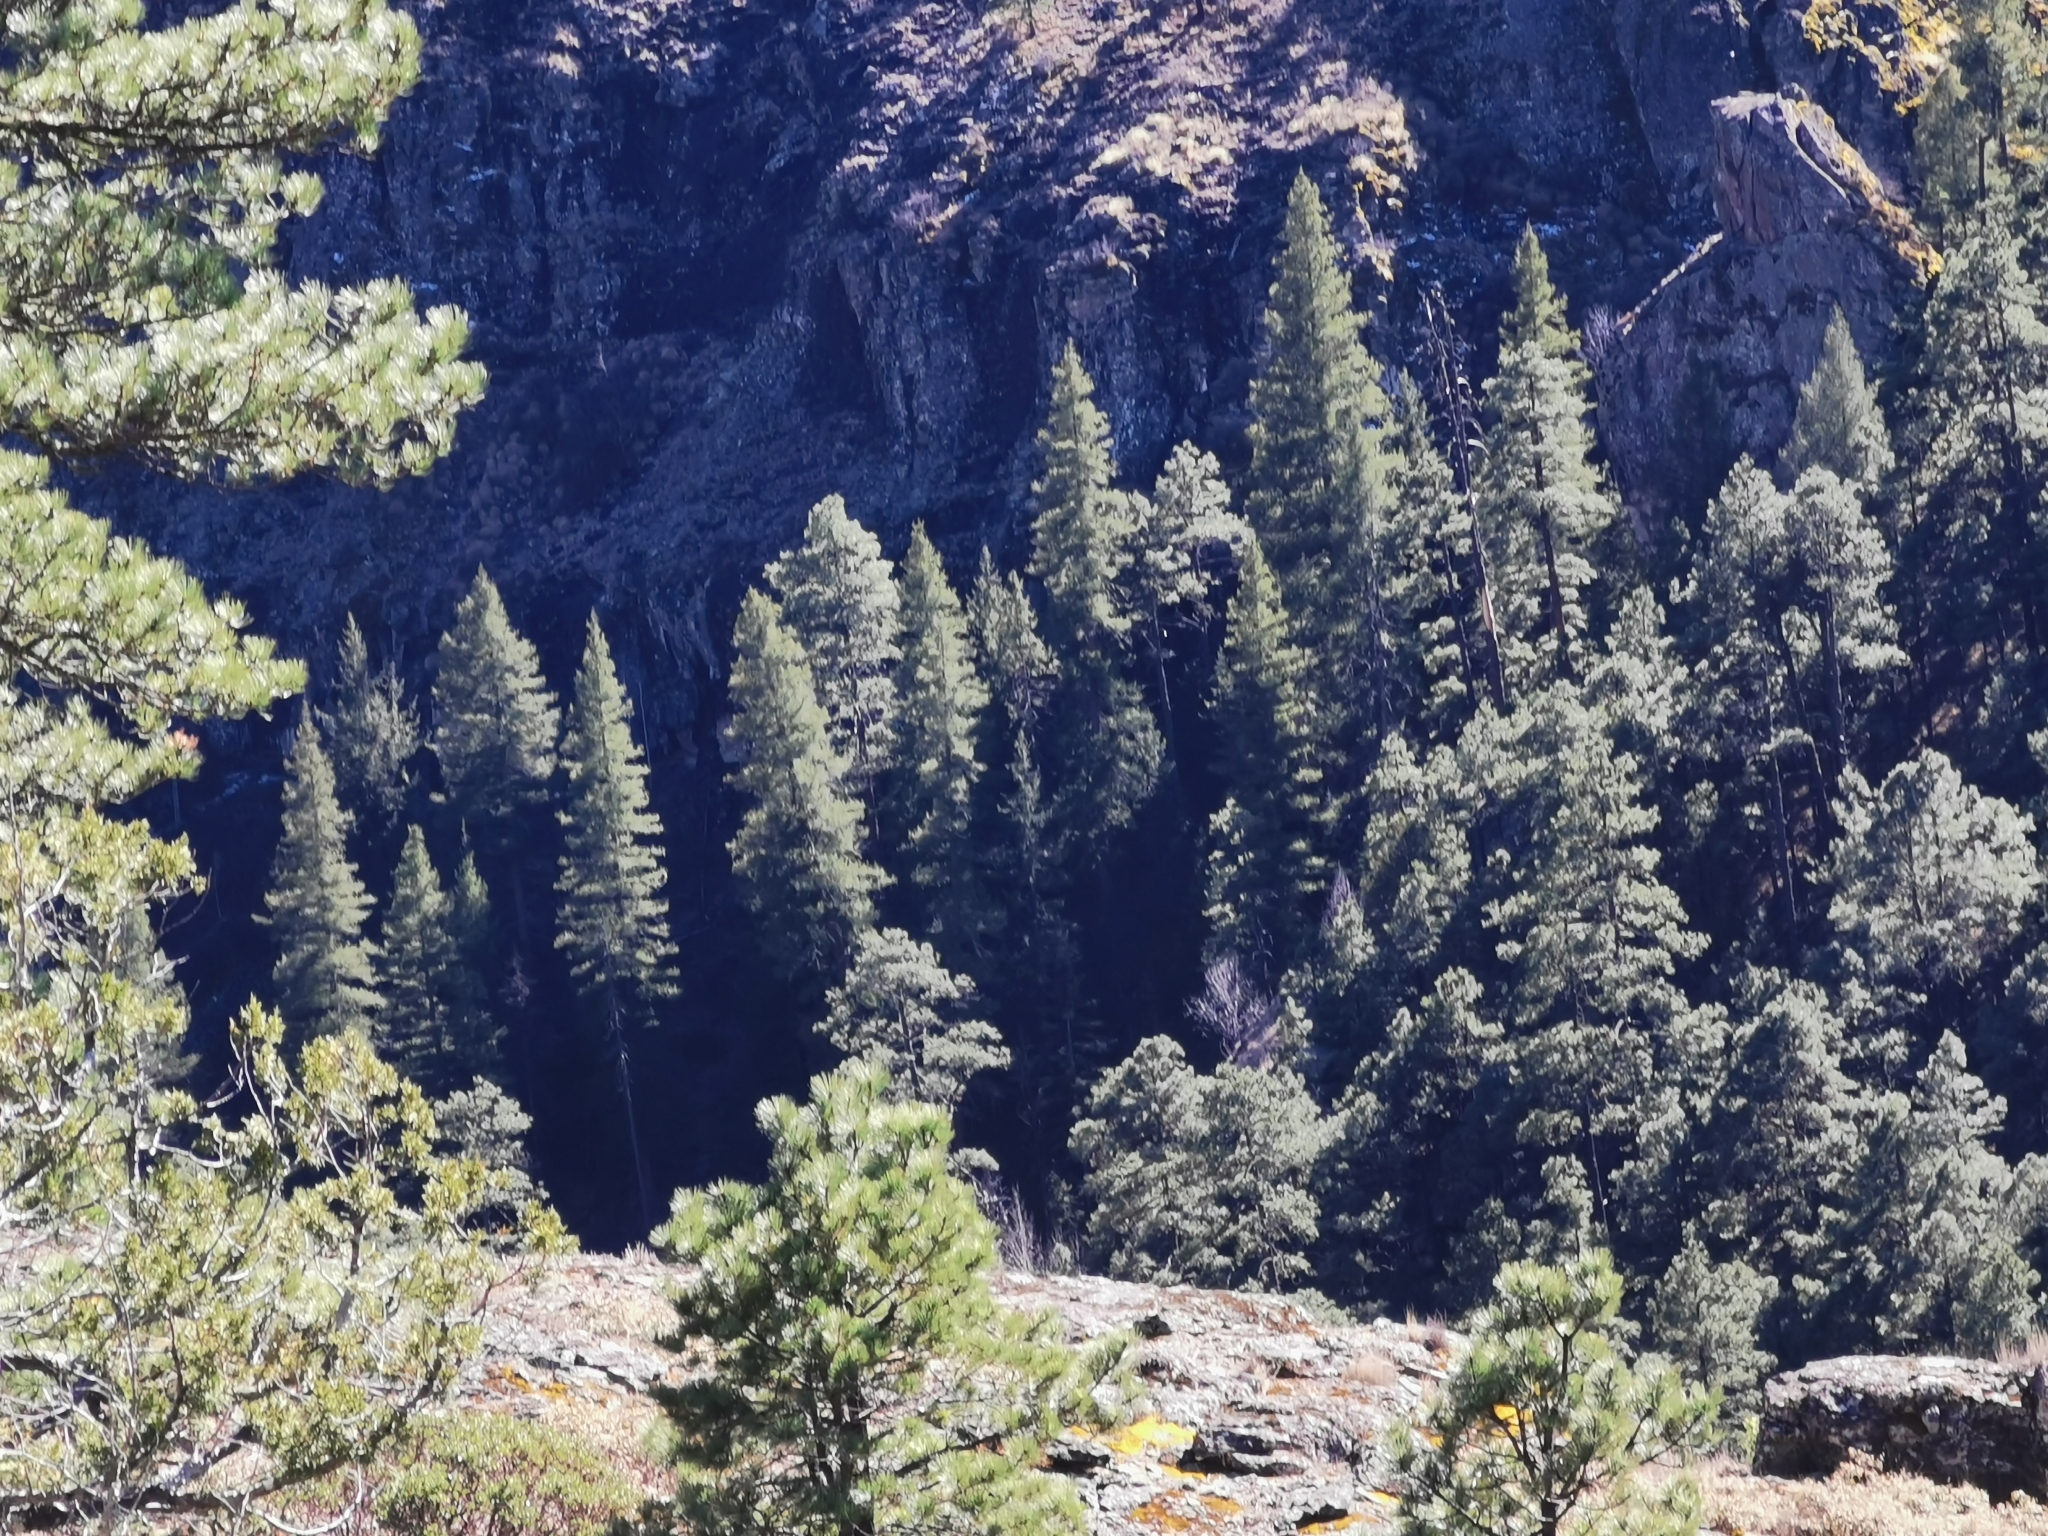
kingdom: Plantae
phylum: Tracheophyta
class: Pinopsida
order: Pinales
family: Pinaceae
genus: Picea
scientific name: Picea chihuahuana
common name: Chihuahua spruce
